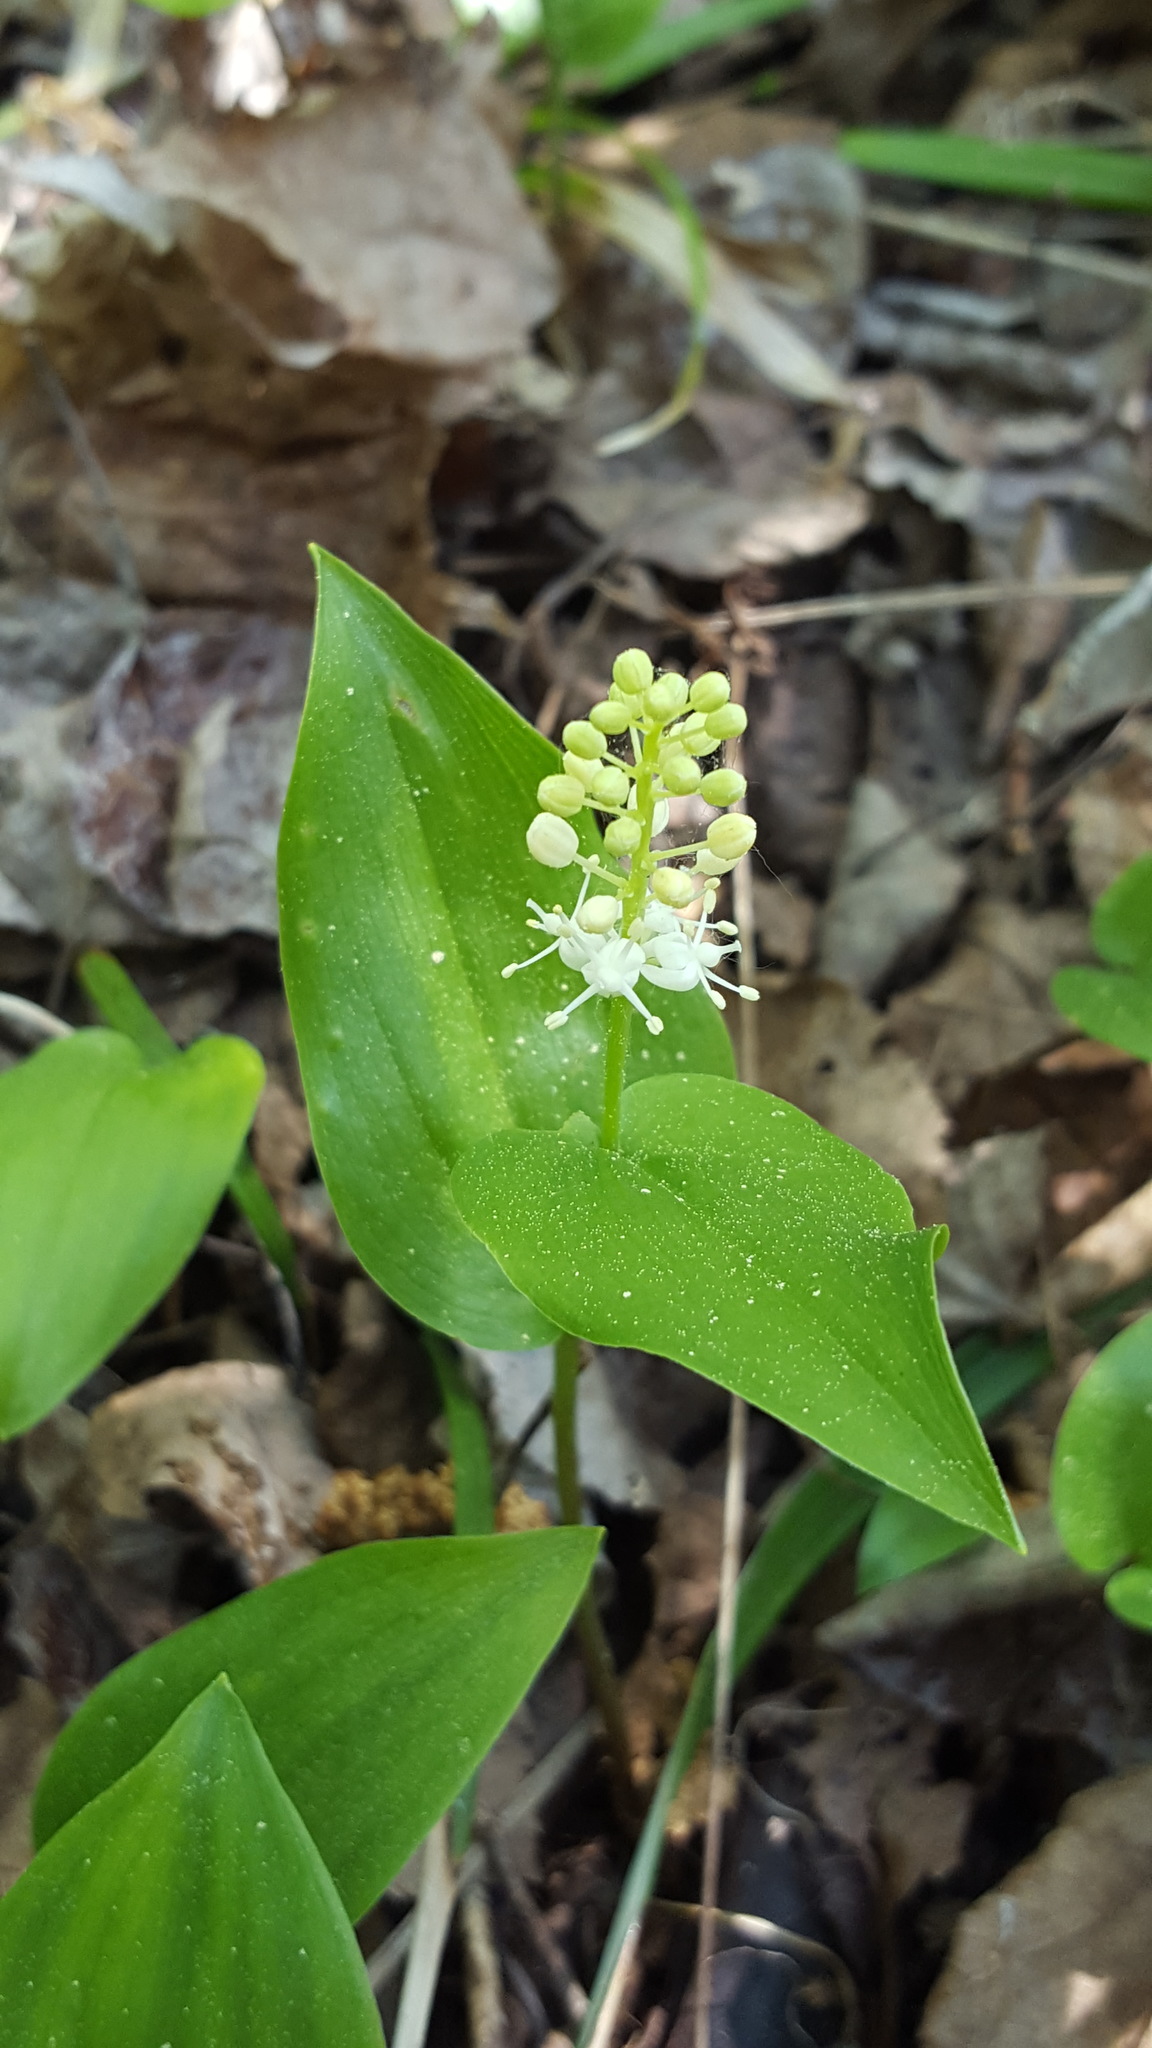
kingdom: Plantae
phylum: Tracheophyta
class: Liliopsida
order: Asparagales
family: Asparagaceae
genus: Maianthemum
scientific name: Maianthemum canadense
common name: False lily-of-the-valley
